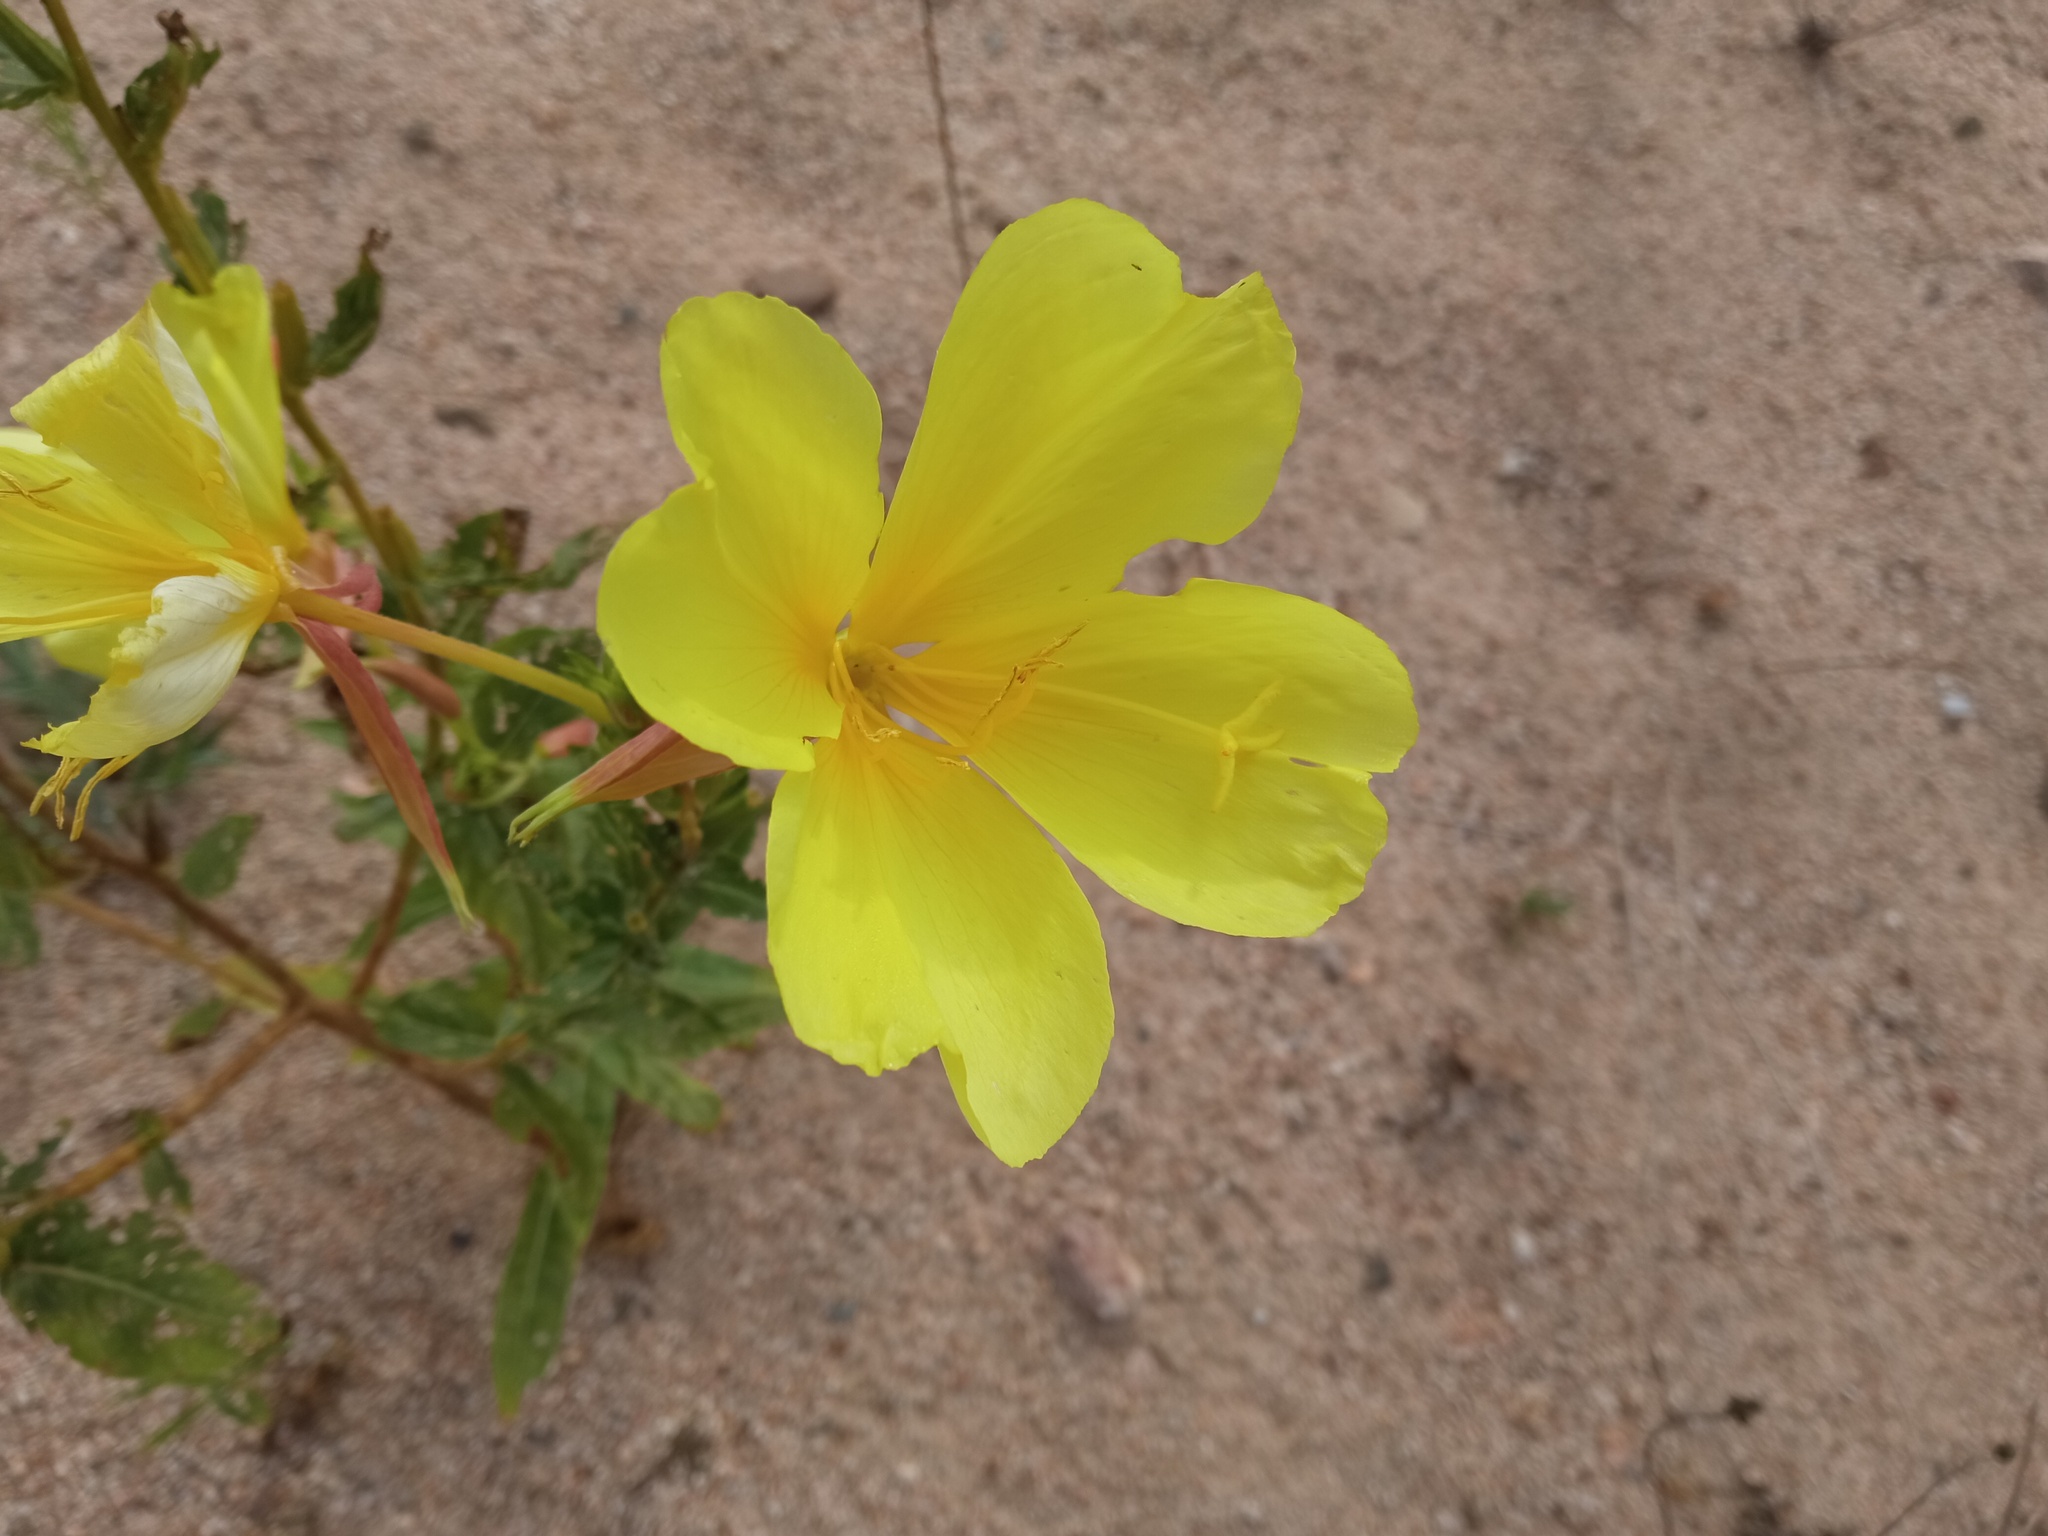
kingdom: Plantae
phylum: Tracheophyta
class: Magnoliopsida
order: Myrtales
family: Onagraceae
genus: Oenothera
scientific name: Oenothera glazioviana
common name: Large-flowered evening-primrose
